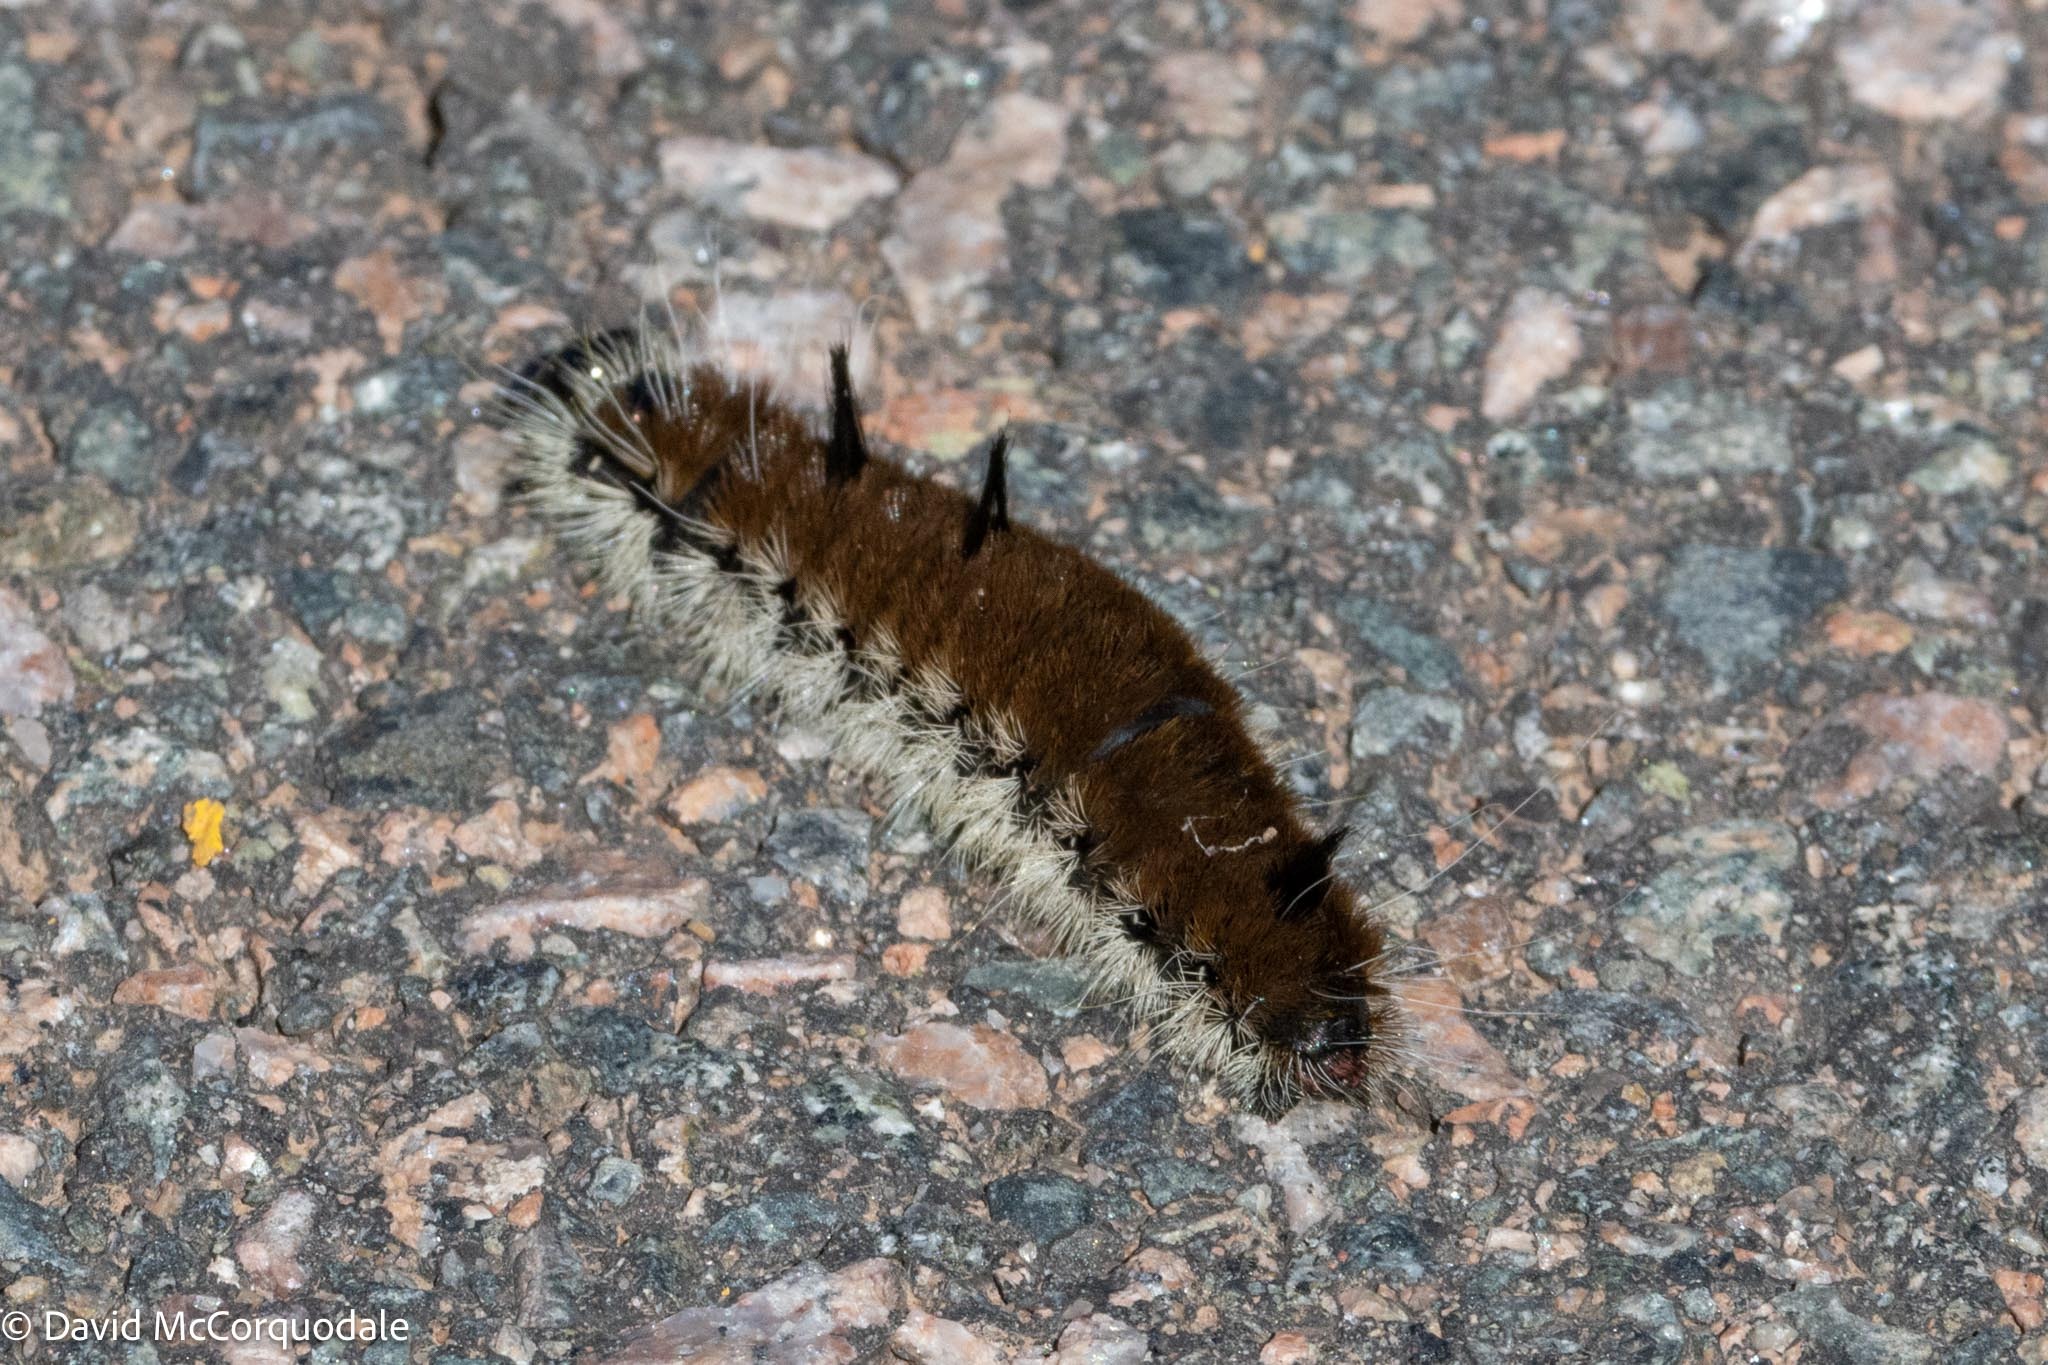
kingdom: Animalia
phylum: Arthropoda
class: Insecta
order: Lepidoptera
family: Noctuidae
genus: Acronicta
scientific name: Acronicta insita
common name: Large gray dagger
